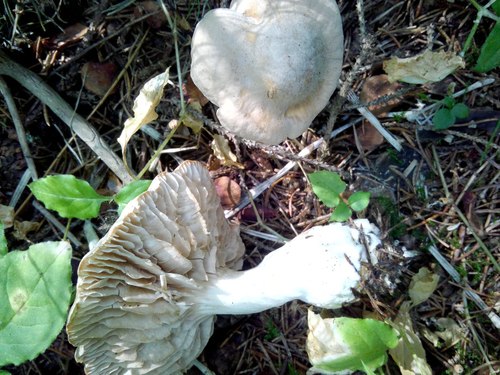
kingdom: Fungi
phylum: Basidiomycota
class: Agaricomycetes
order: Agaricales
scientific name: Agaricales
